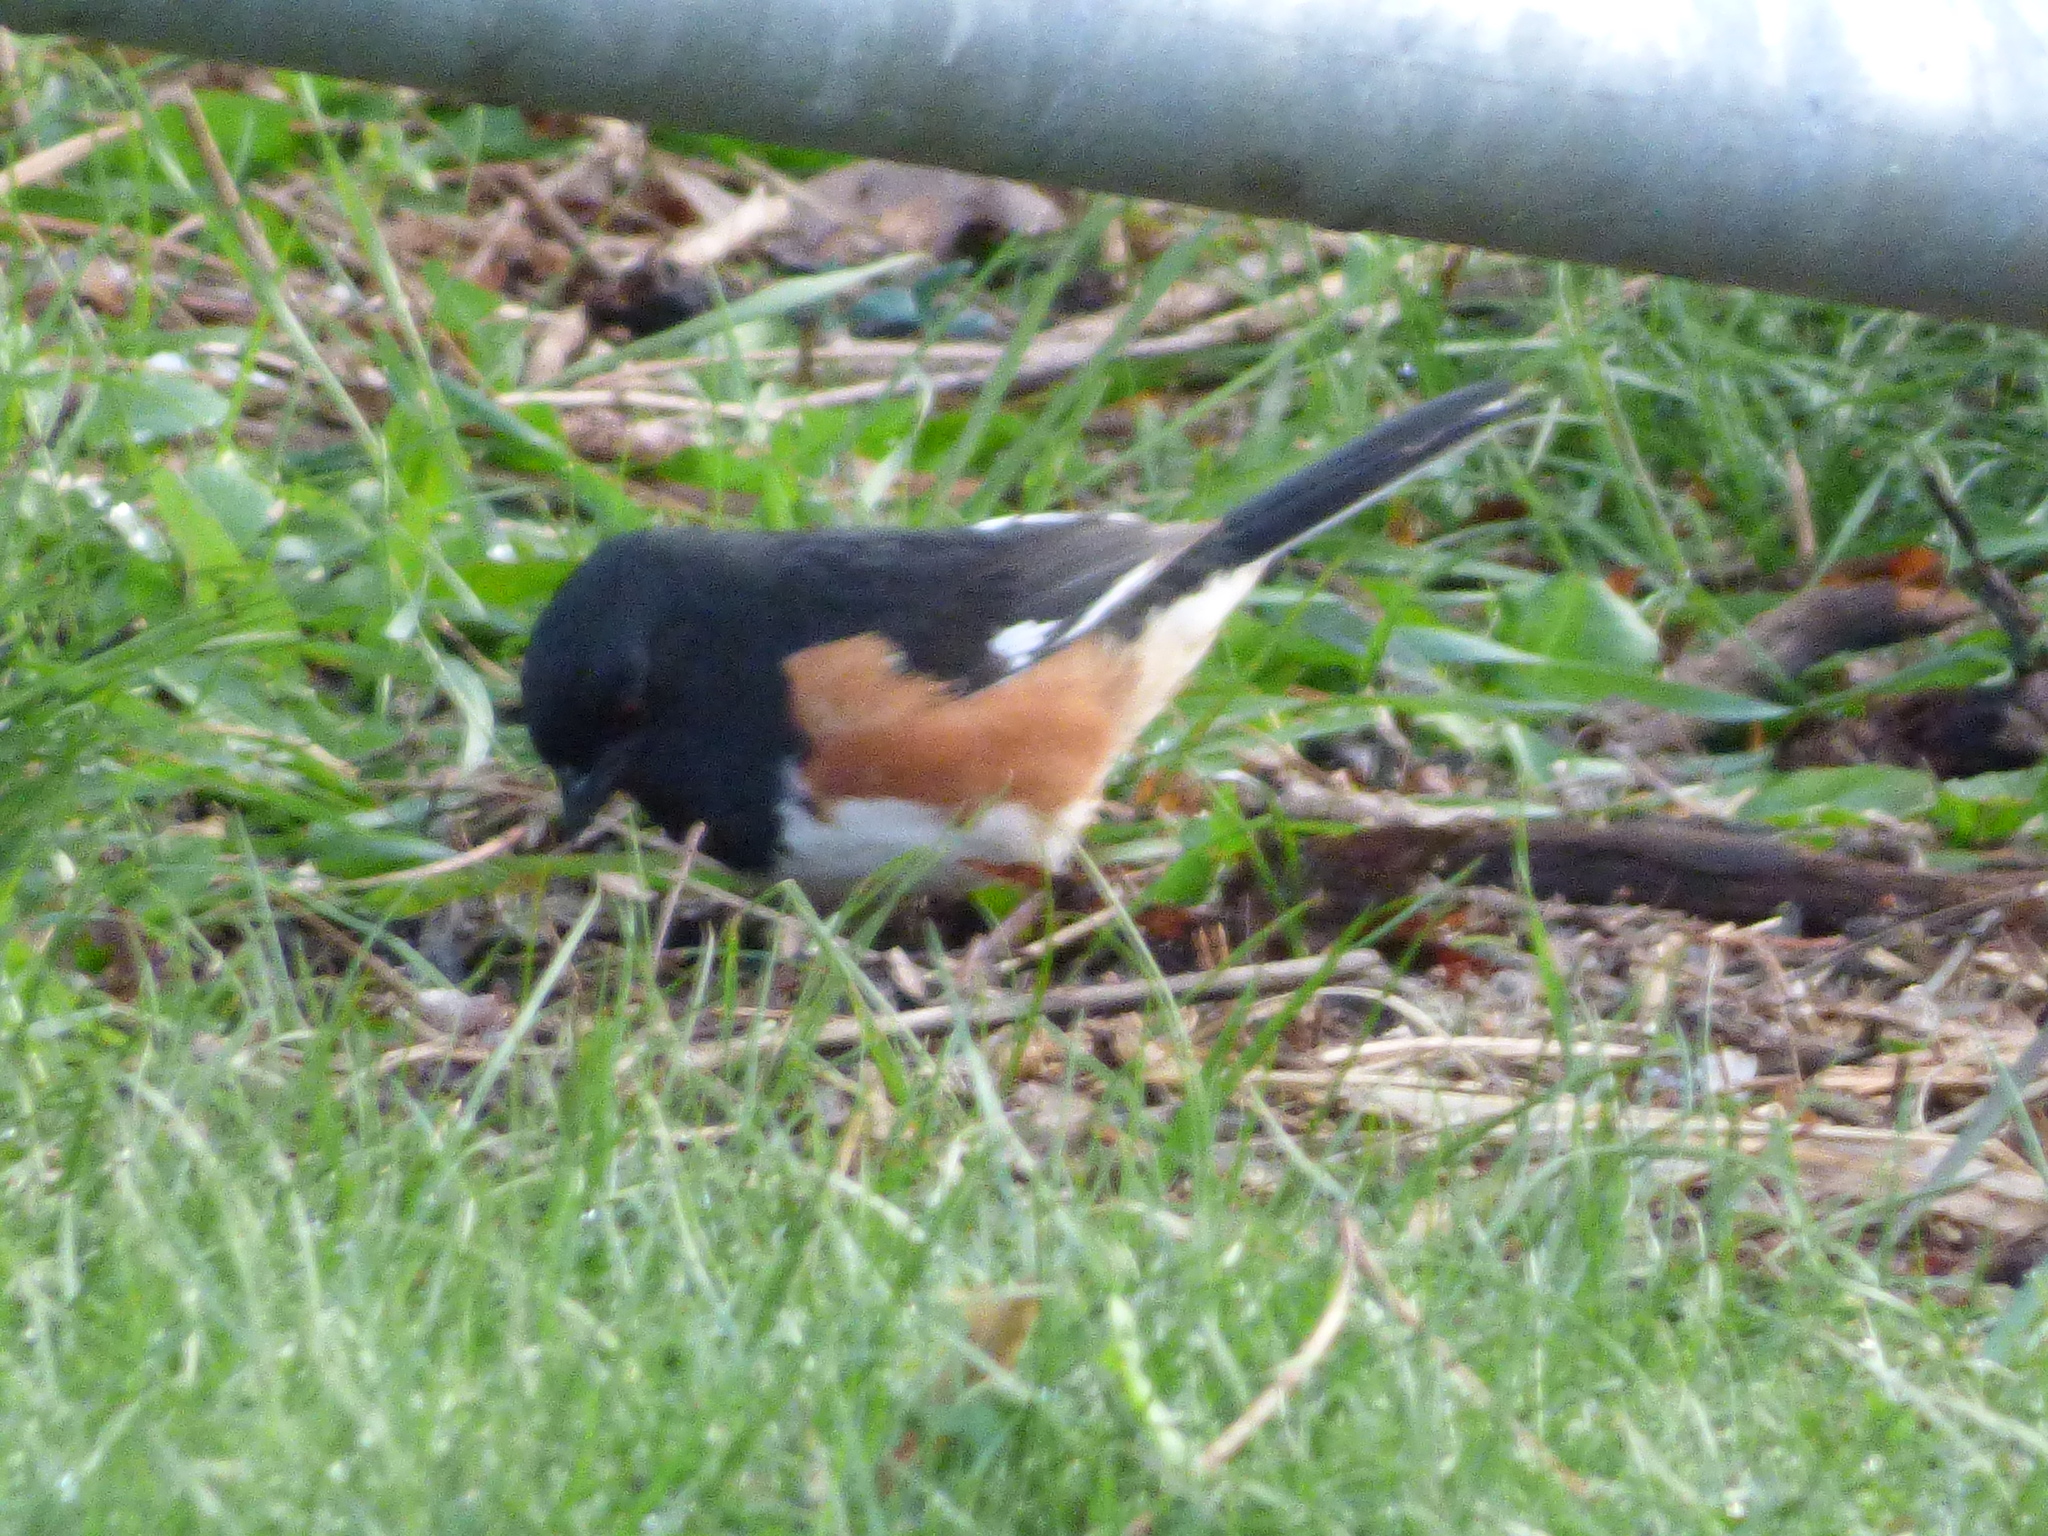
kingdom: Animalia
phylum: Chordata
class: Aves
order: Passeriformes
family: Passerellidae
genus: Pipilo
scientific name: Pipilo erythrophthalmus
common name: Eastern towhee
